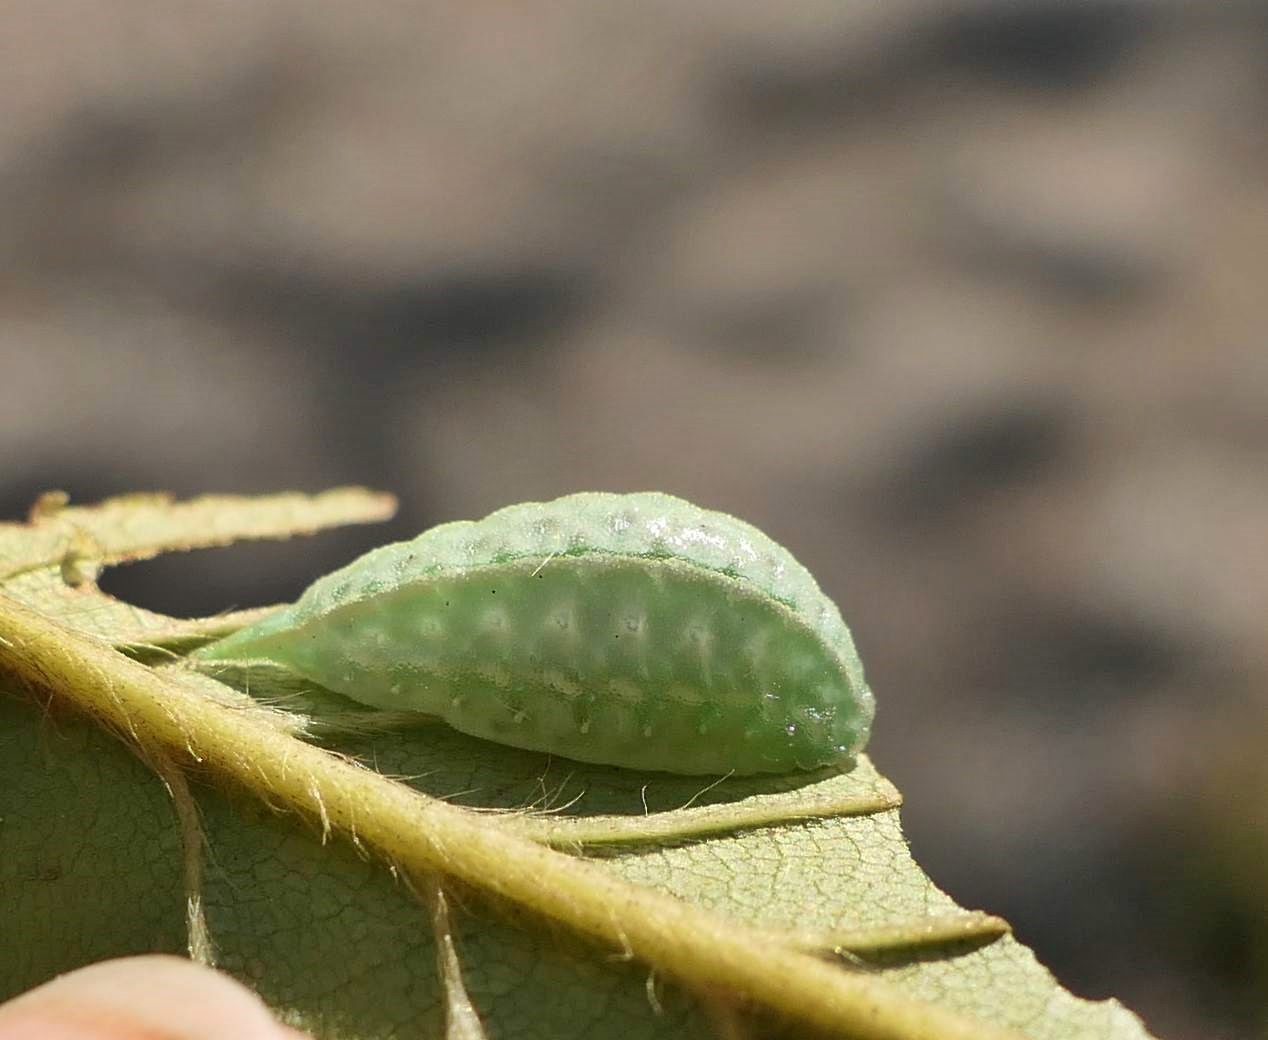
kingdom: Animalia
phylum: Arthropoda
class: Insecta
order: Lepidoptera
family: Limacodidae
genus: Packardia
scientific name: Packardia geminata
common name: Jeweled tailed slug moth
